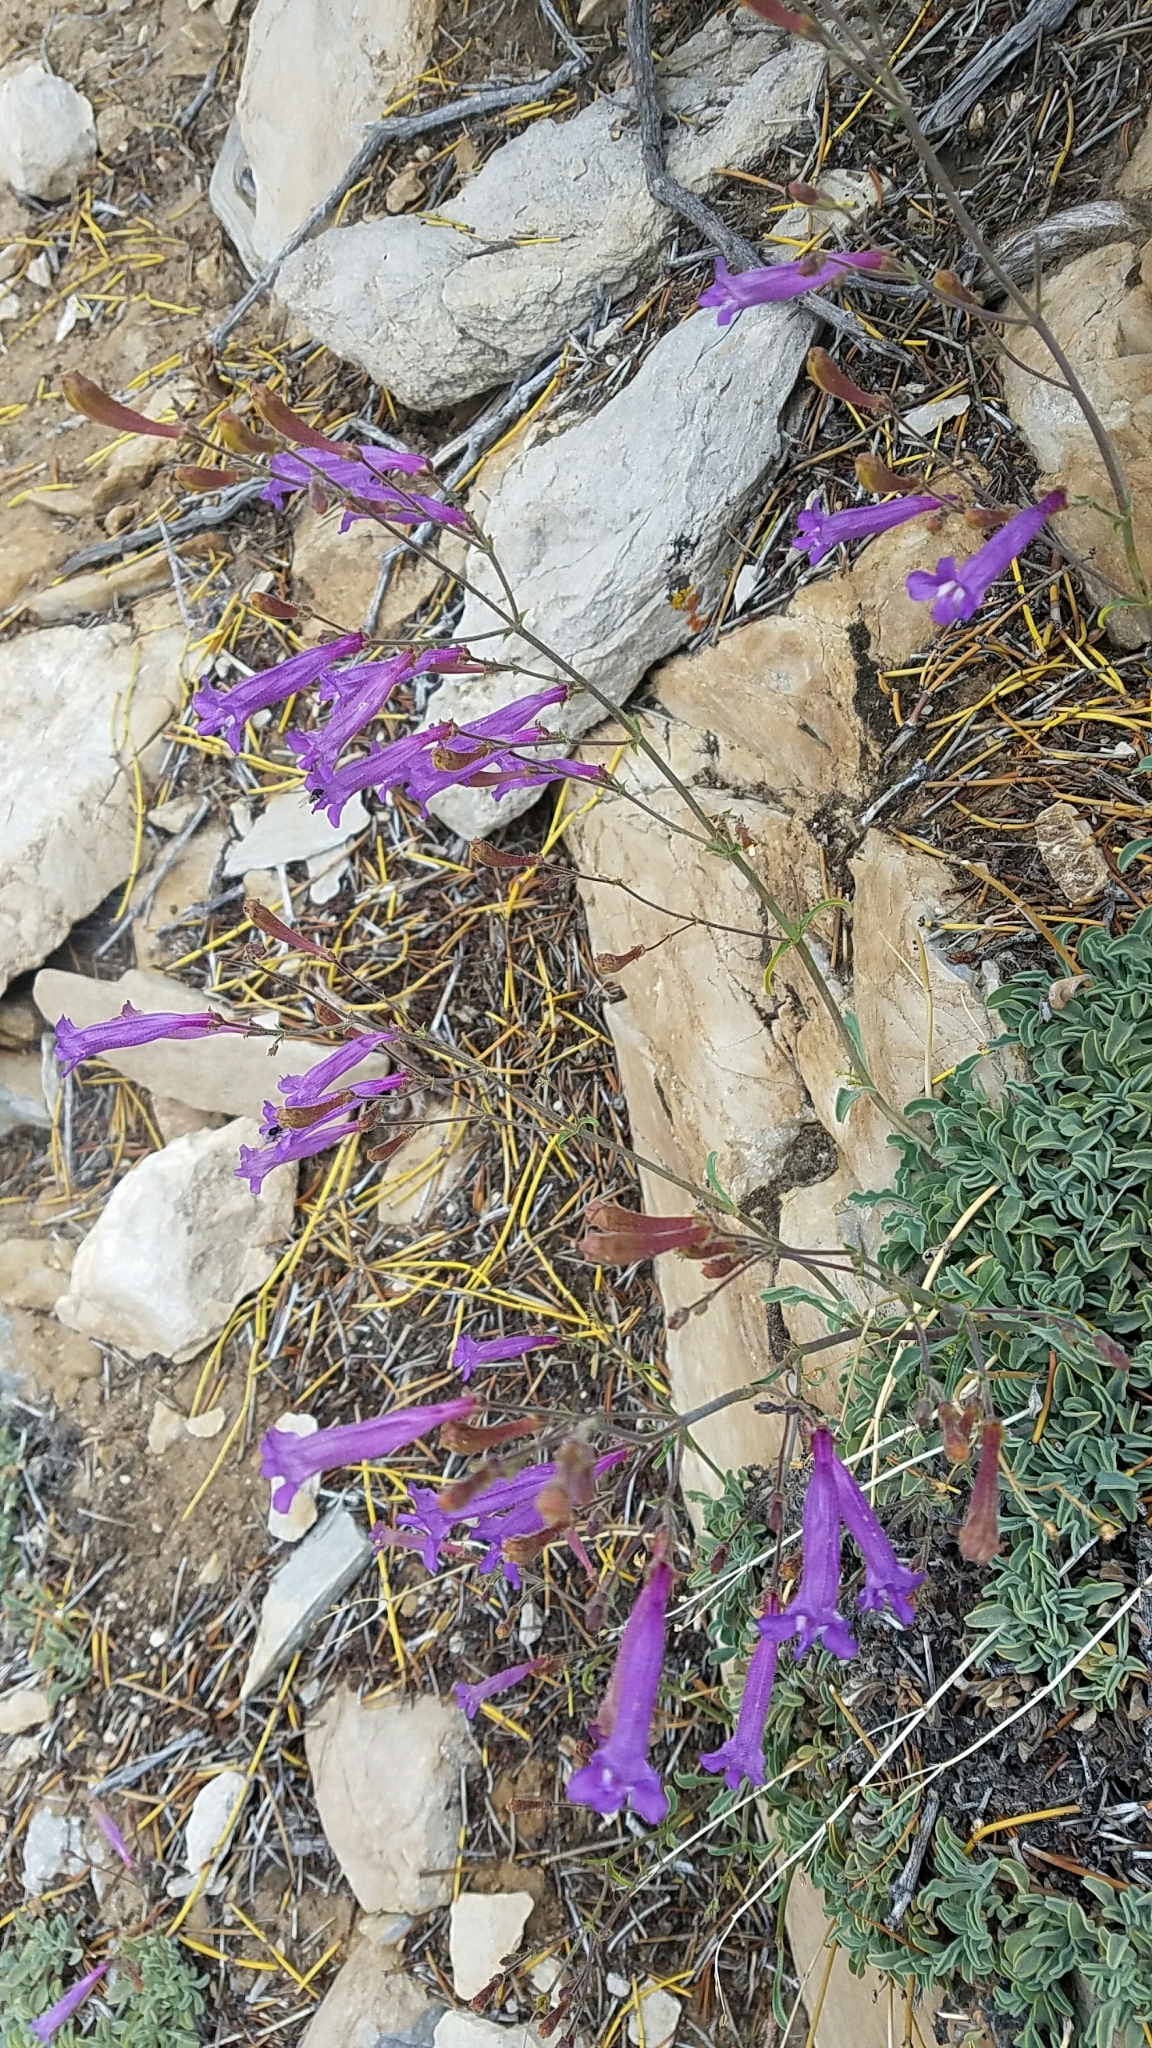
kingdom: Plantae
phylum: Tracheophyta
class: Magnoliopsida
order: Lamiales
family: Plantaginaceae
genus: Penstemon
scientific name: Penstemon scapoides
